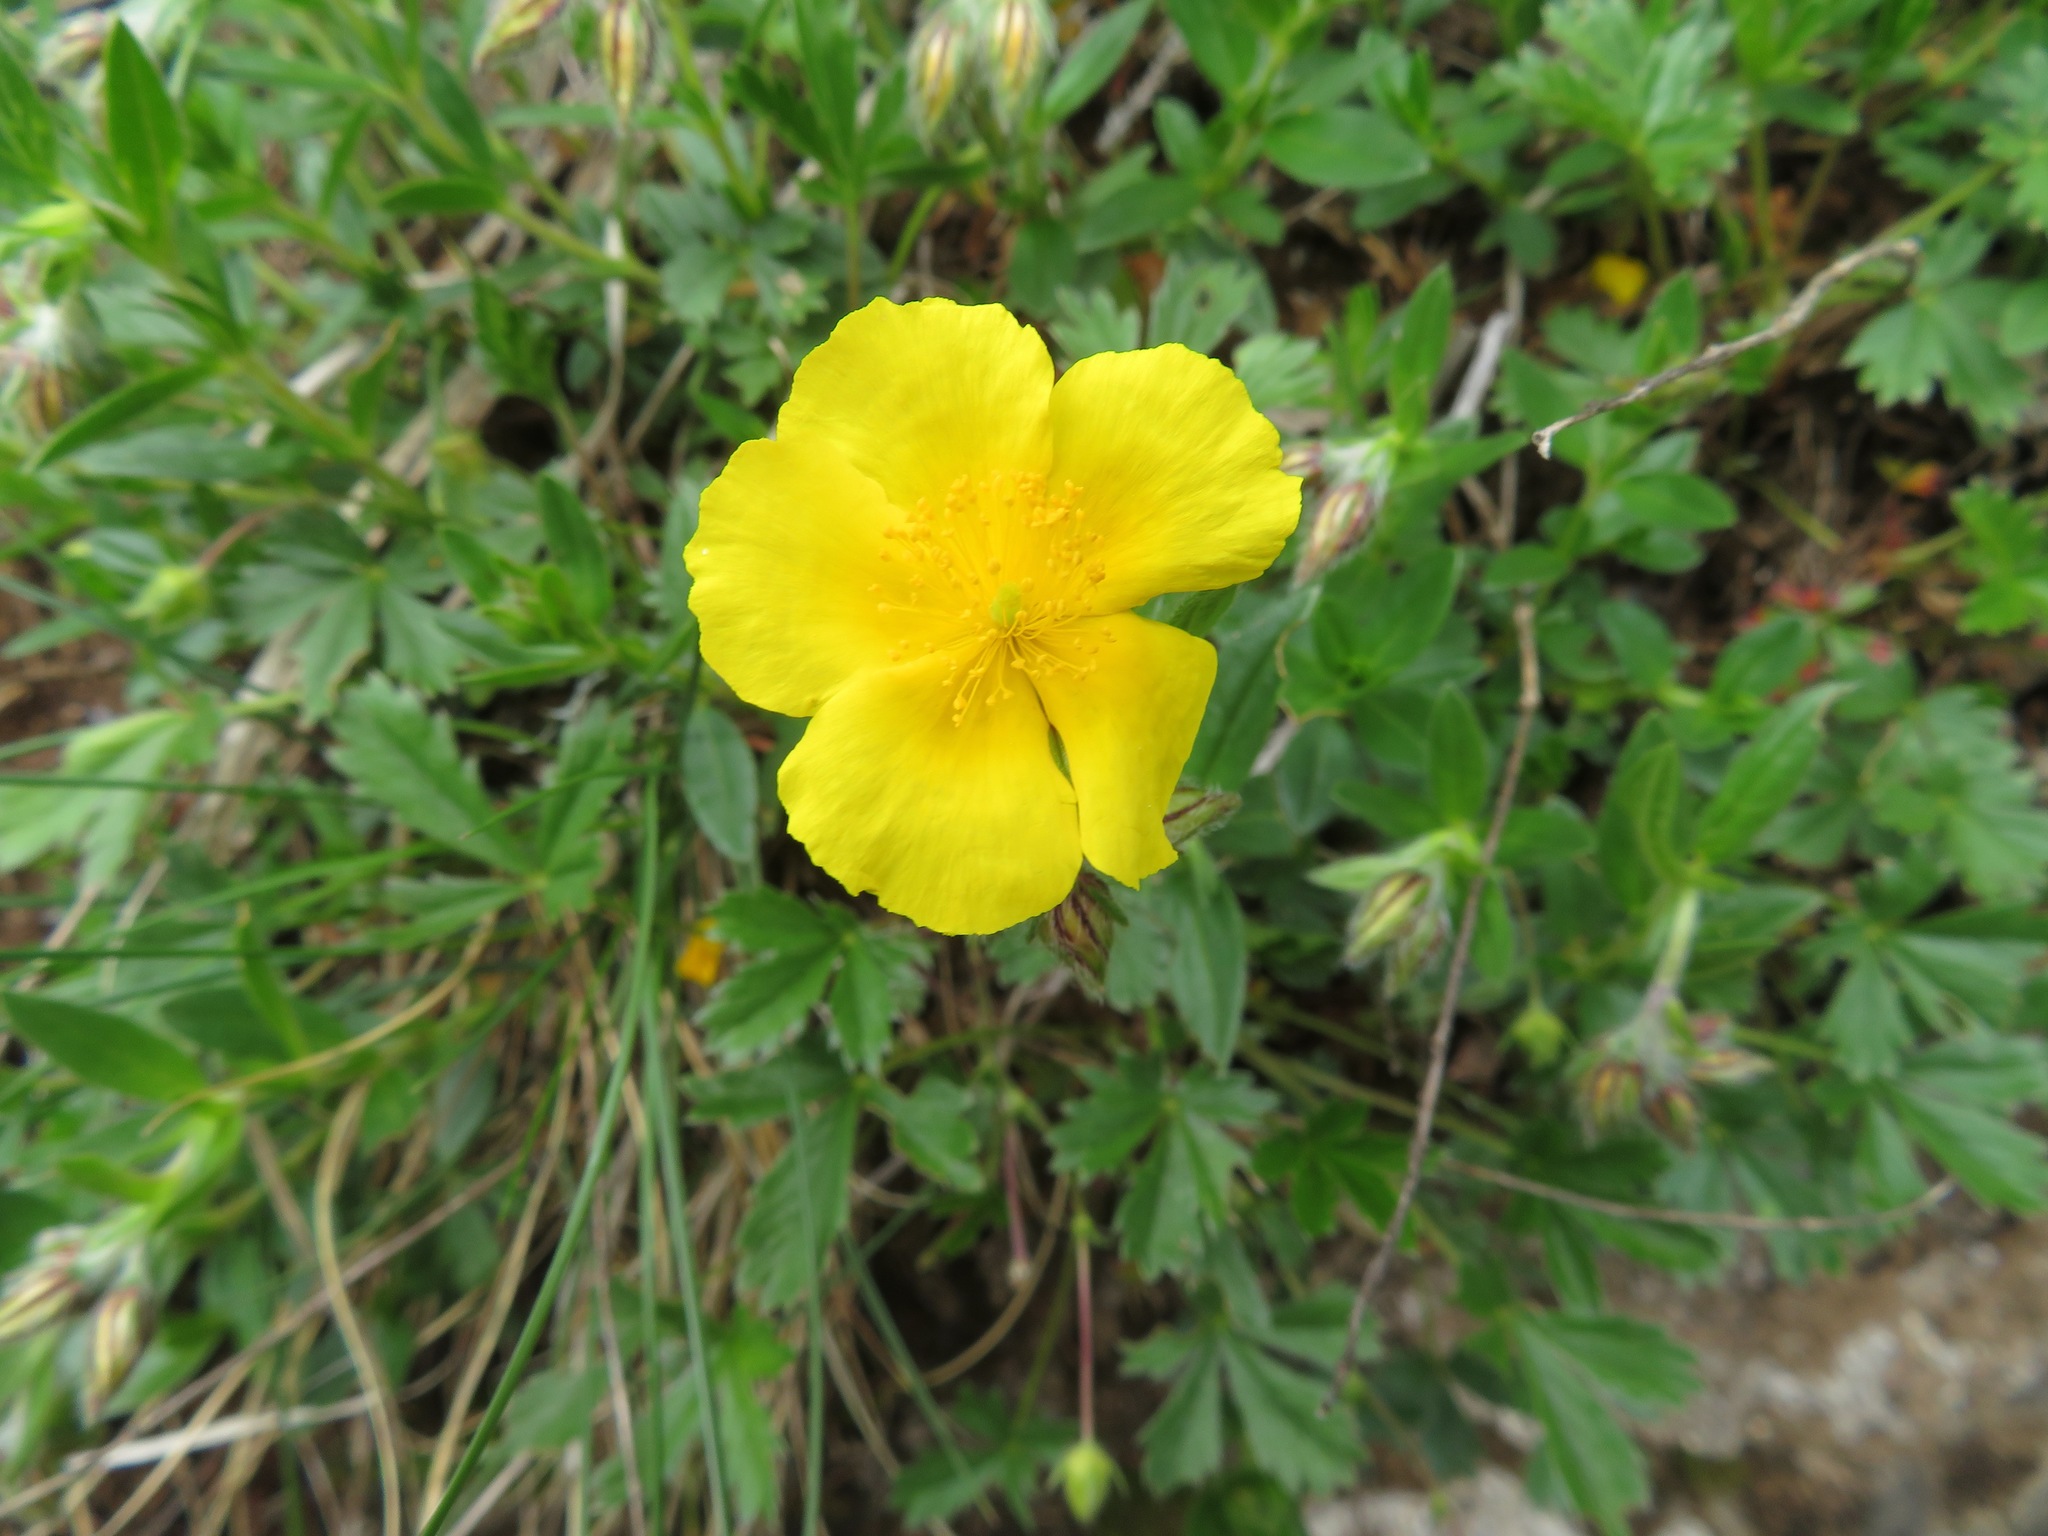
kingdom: Plantae
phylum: Tracheophyta
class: Magnoliopsida
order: Malvales
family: Cistaceae
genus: Helianthemum
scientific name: Helianthemum nummularium
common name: Common rock-rose
